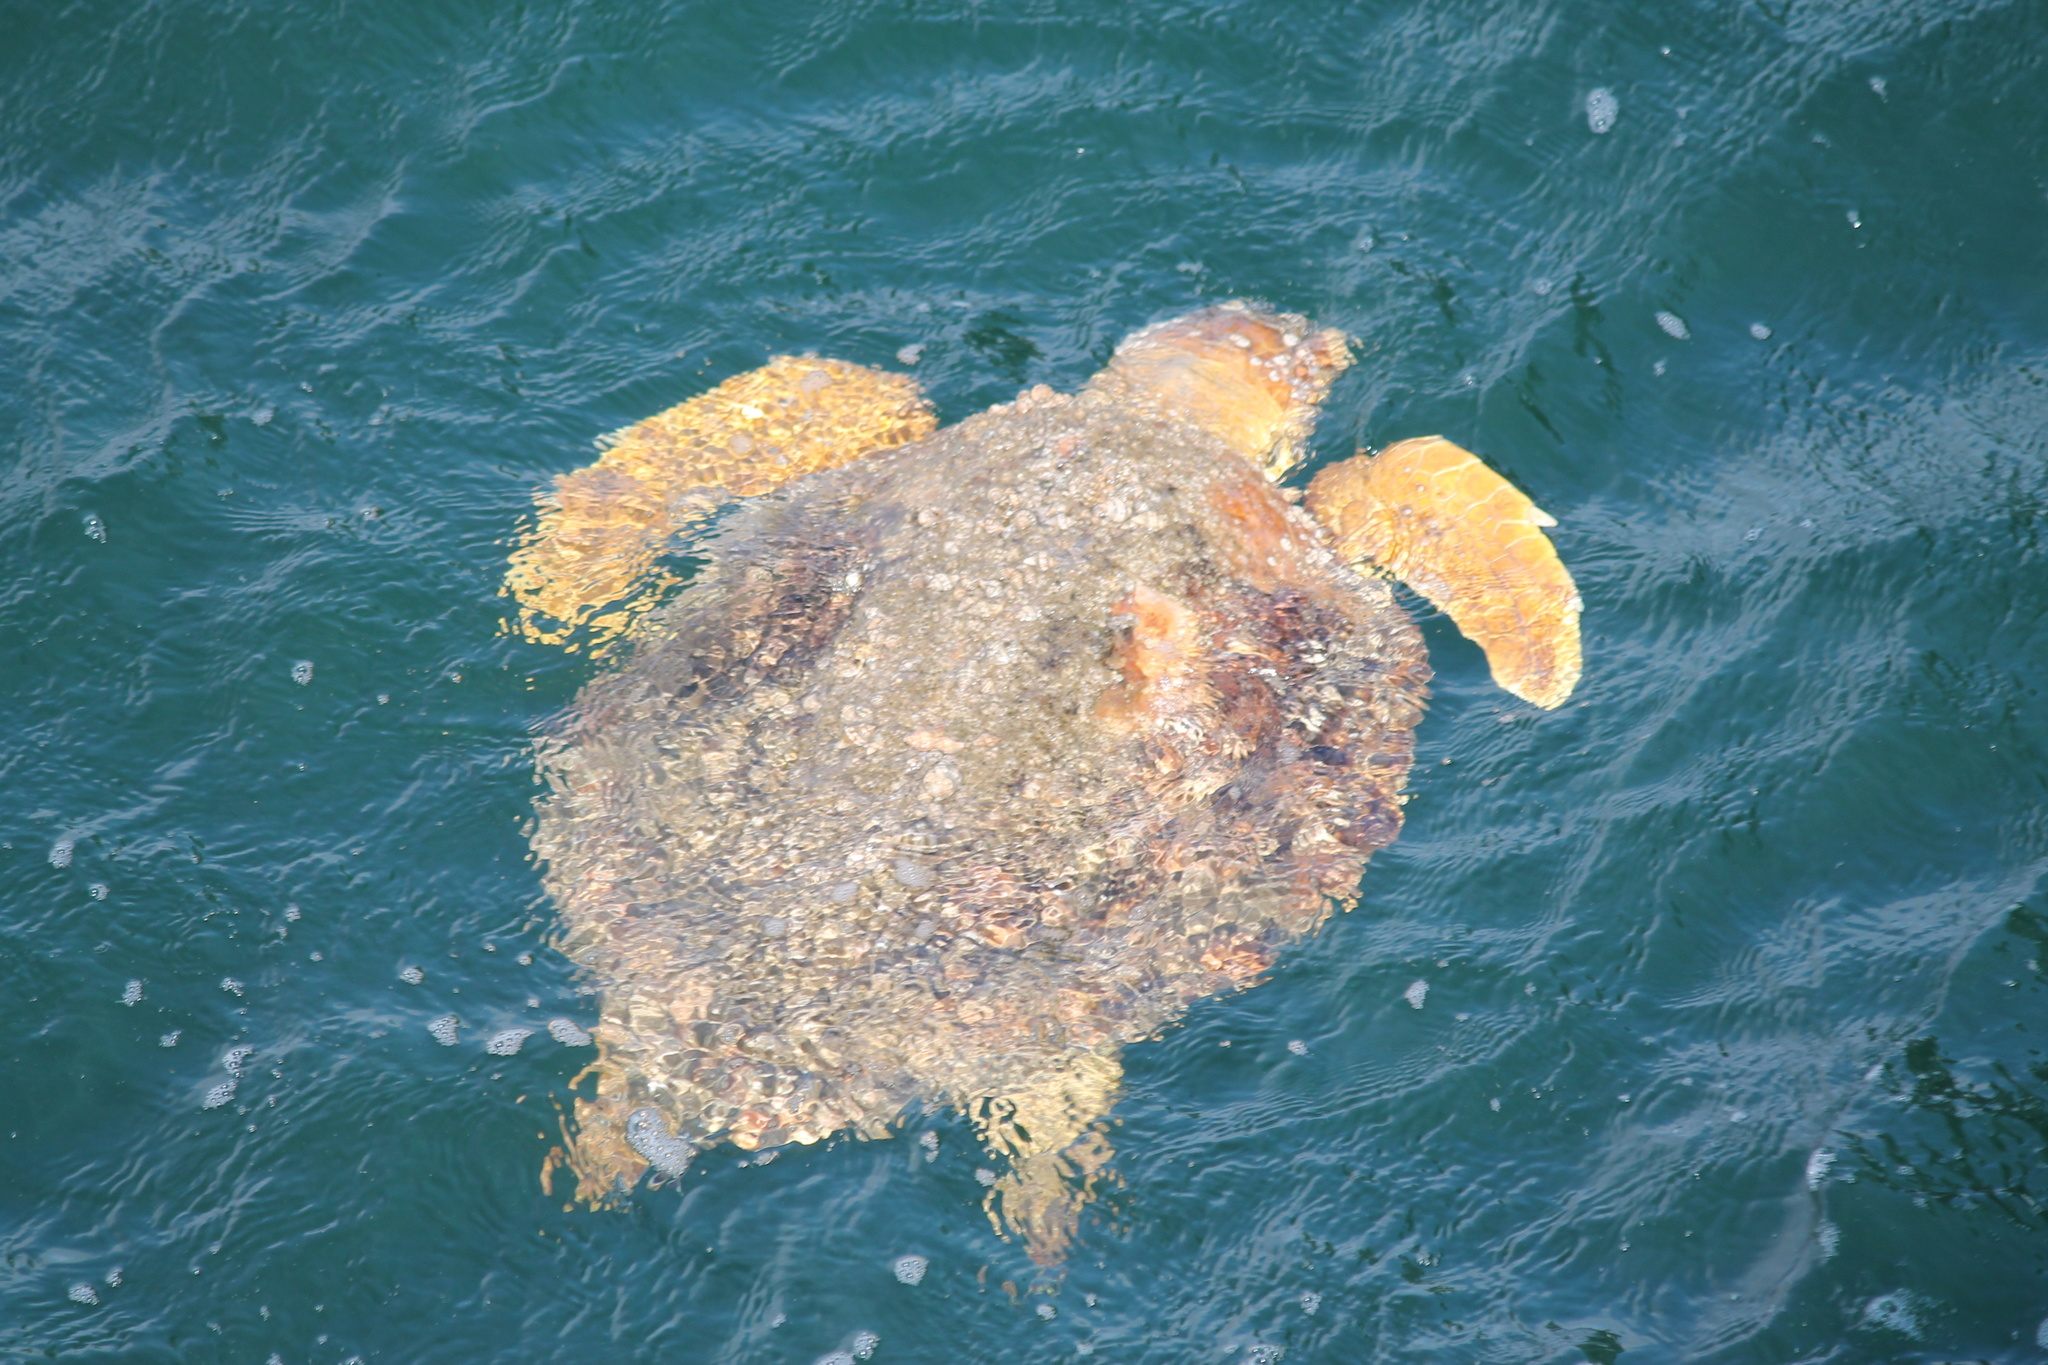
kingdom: Animalia
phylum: Chordata
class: Testudines
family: Cheloniidae
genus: Caretta
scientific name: Caretta caretta
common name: Loggerhead sea turtle
